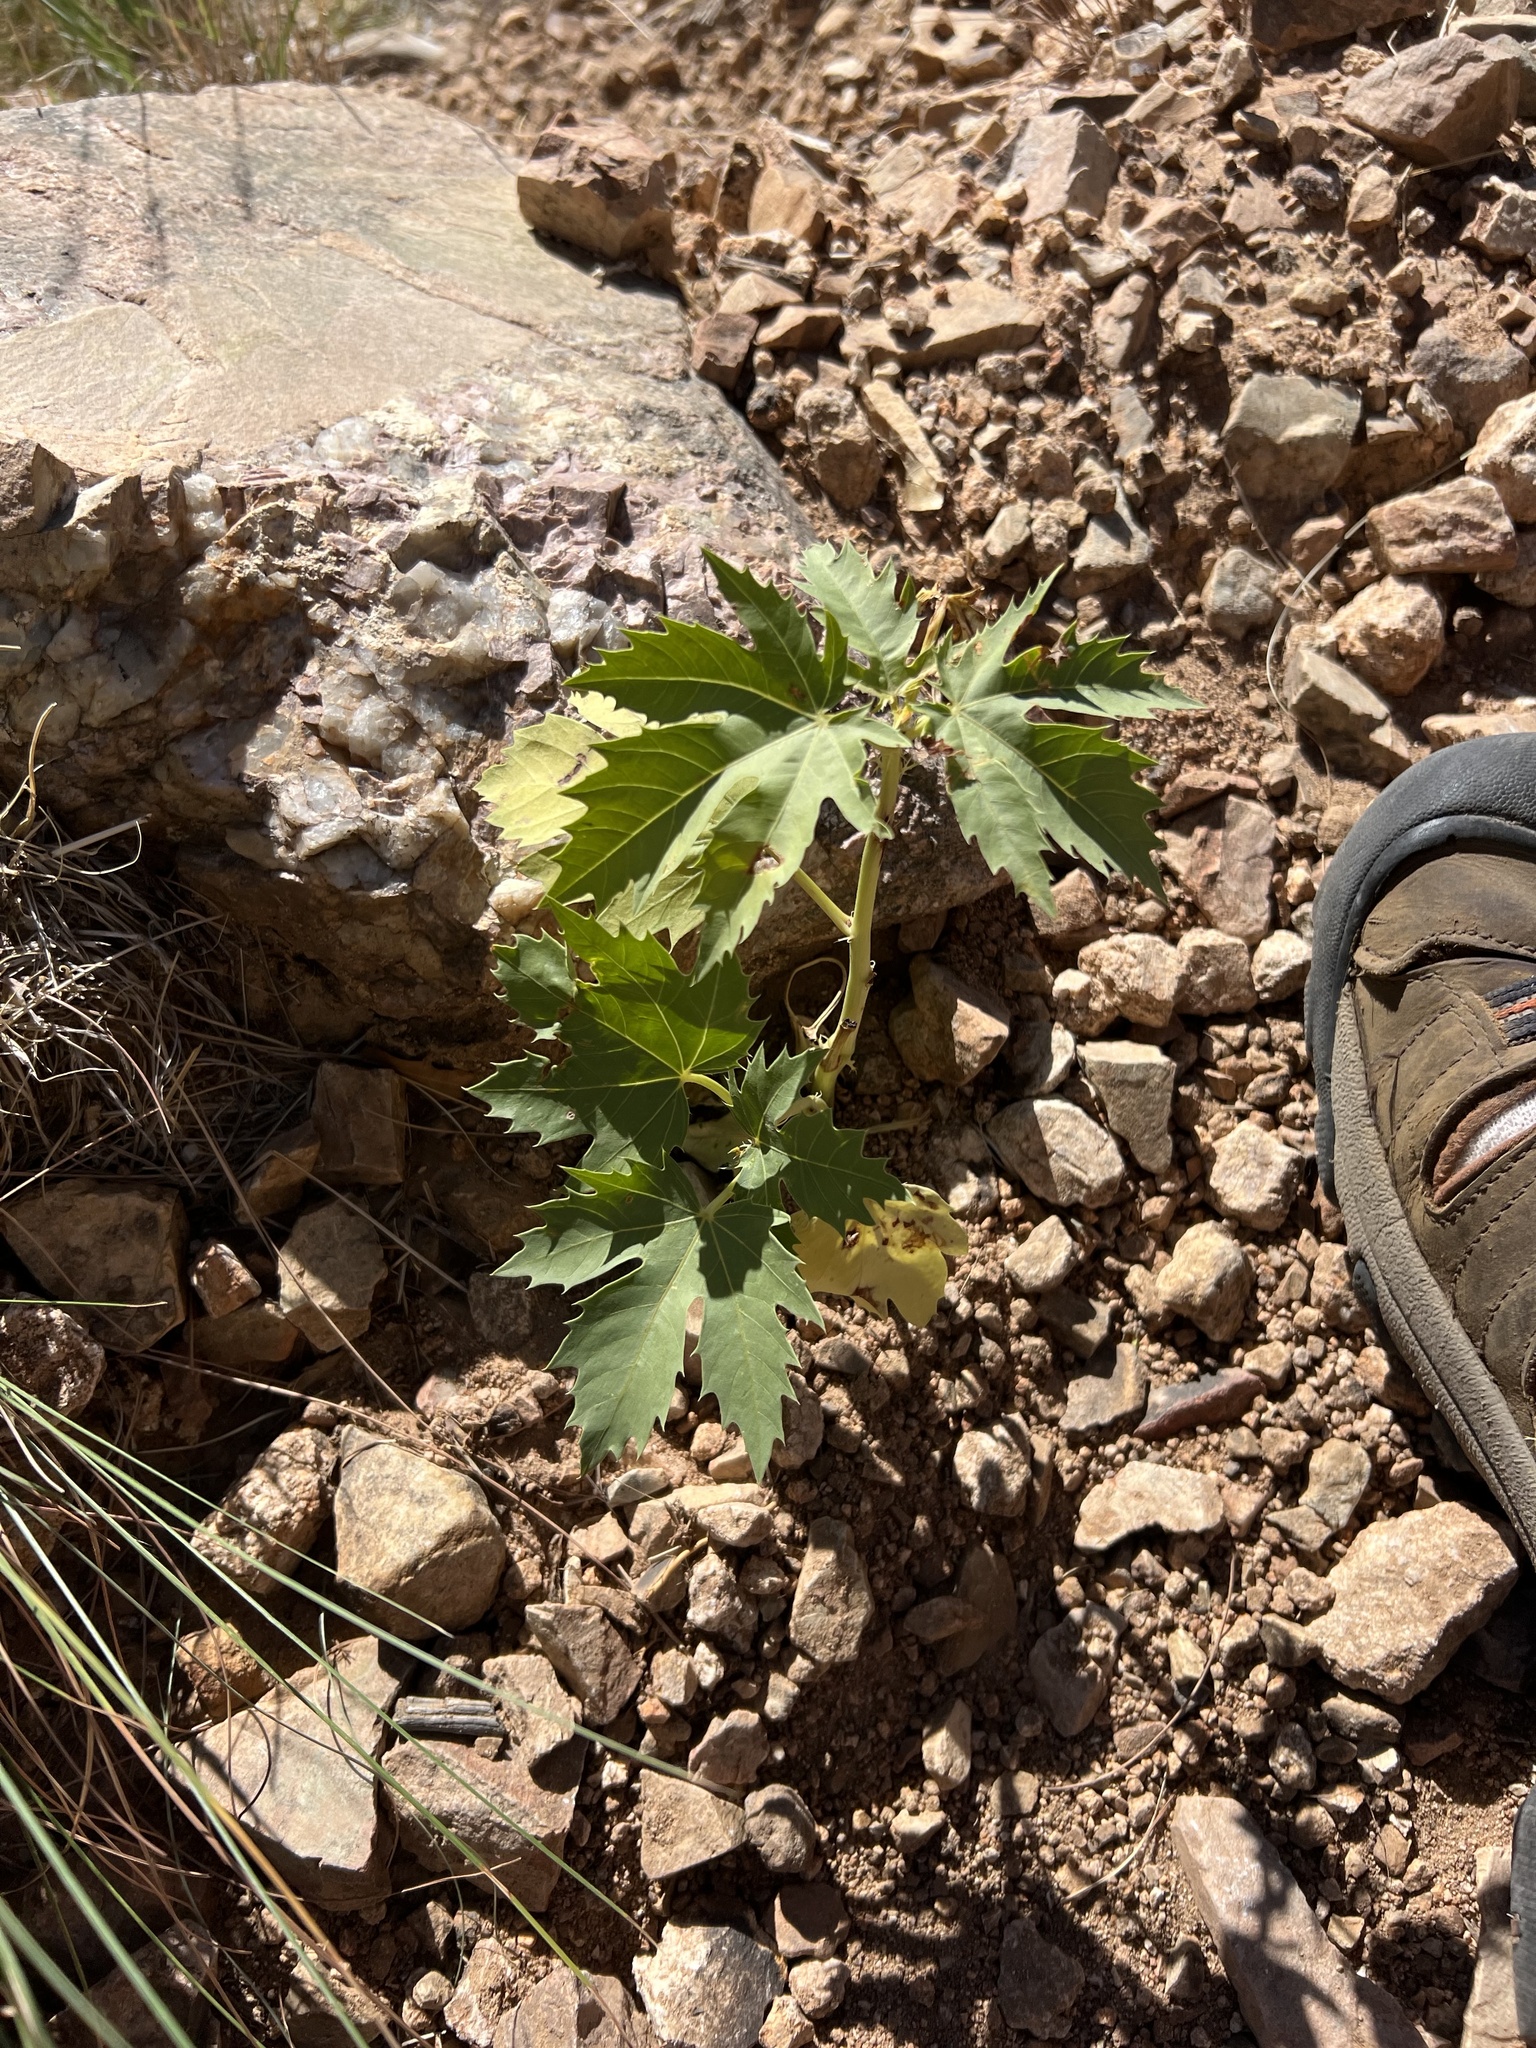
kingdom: Plantae
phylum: Tracheophyta
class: Magnoliopsida
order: Malpighiales
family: Euphorbiaceae
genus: Jatropha
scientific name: Jatropha macrorhiza
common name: Ragged nettlespurge
